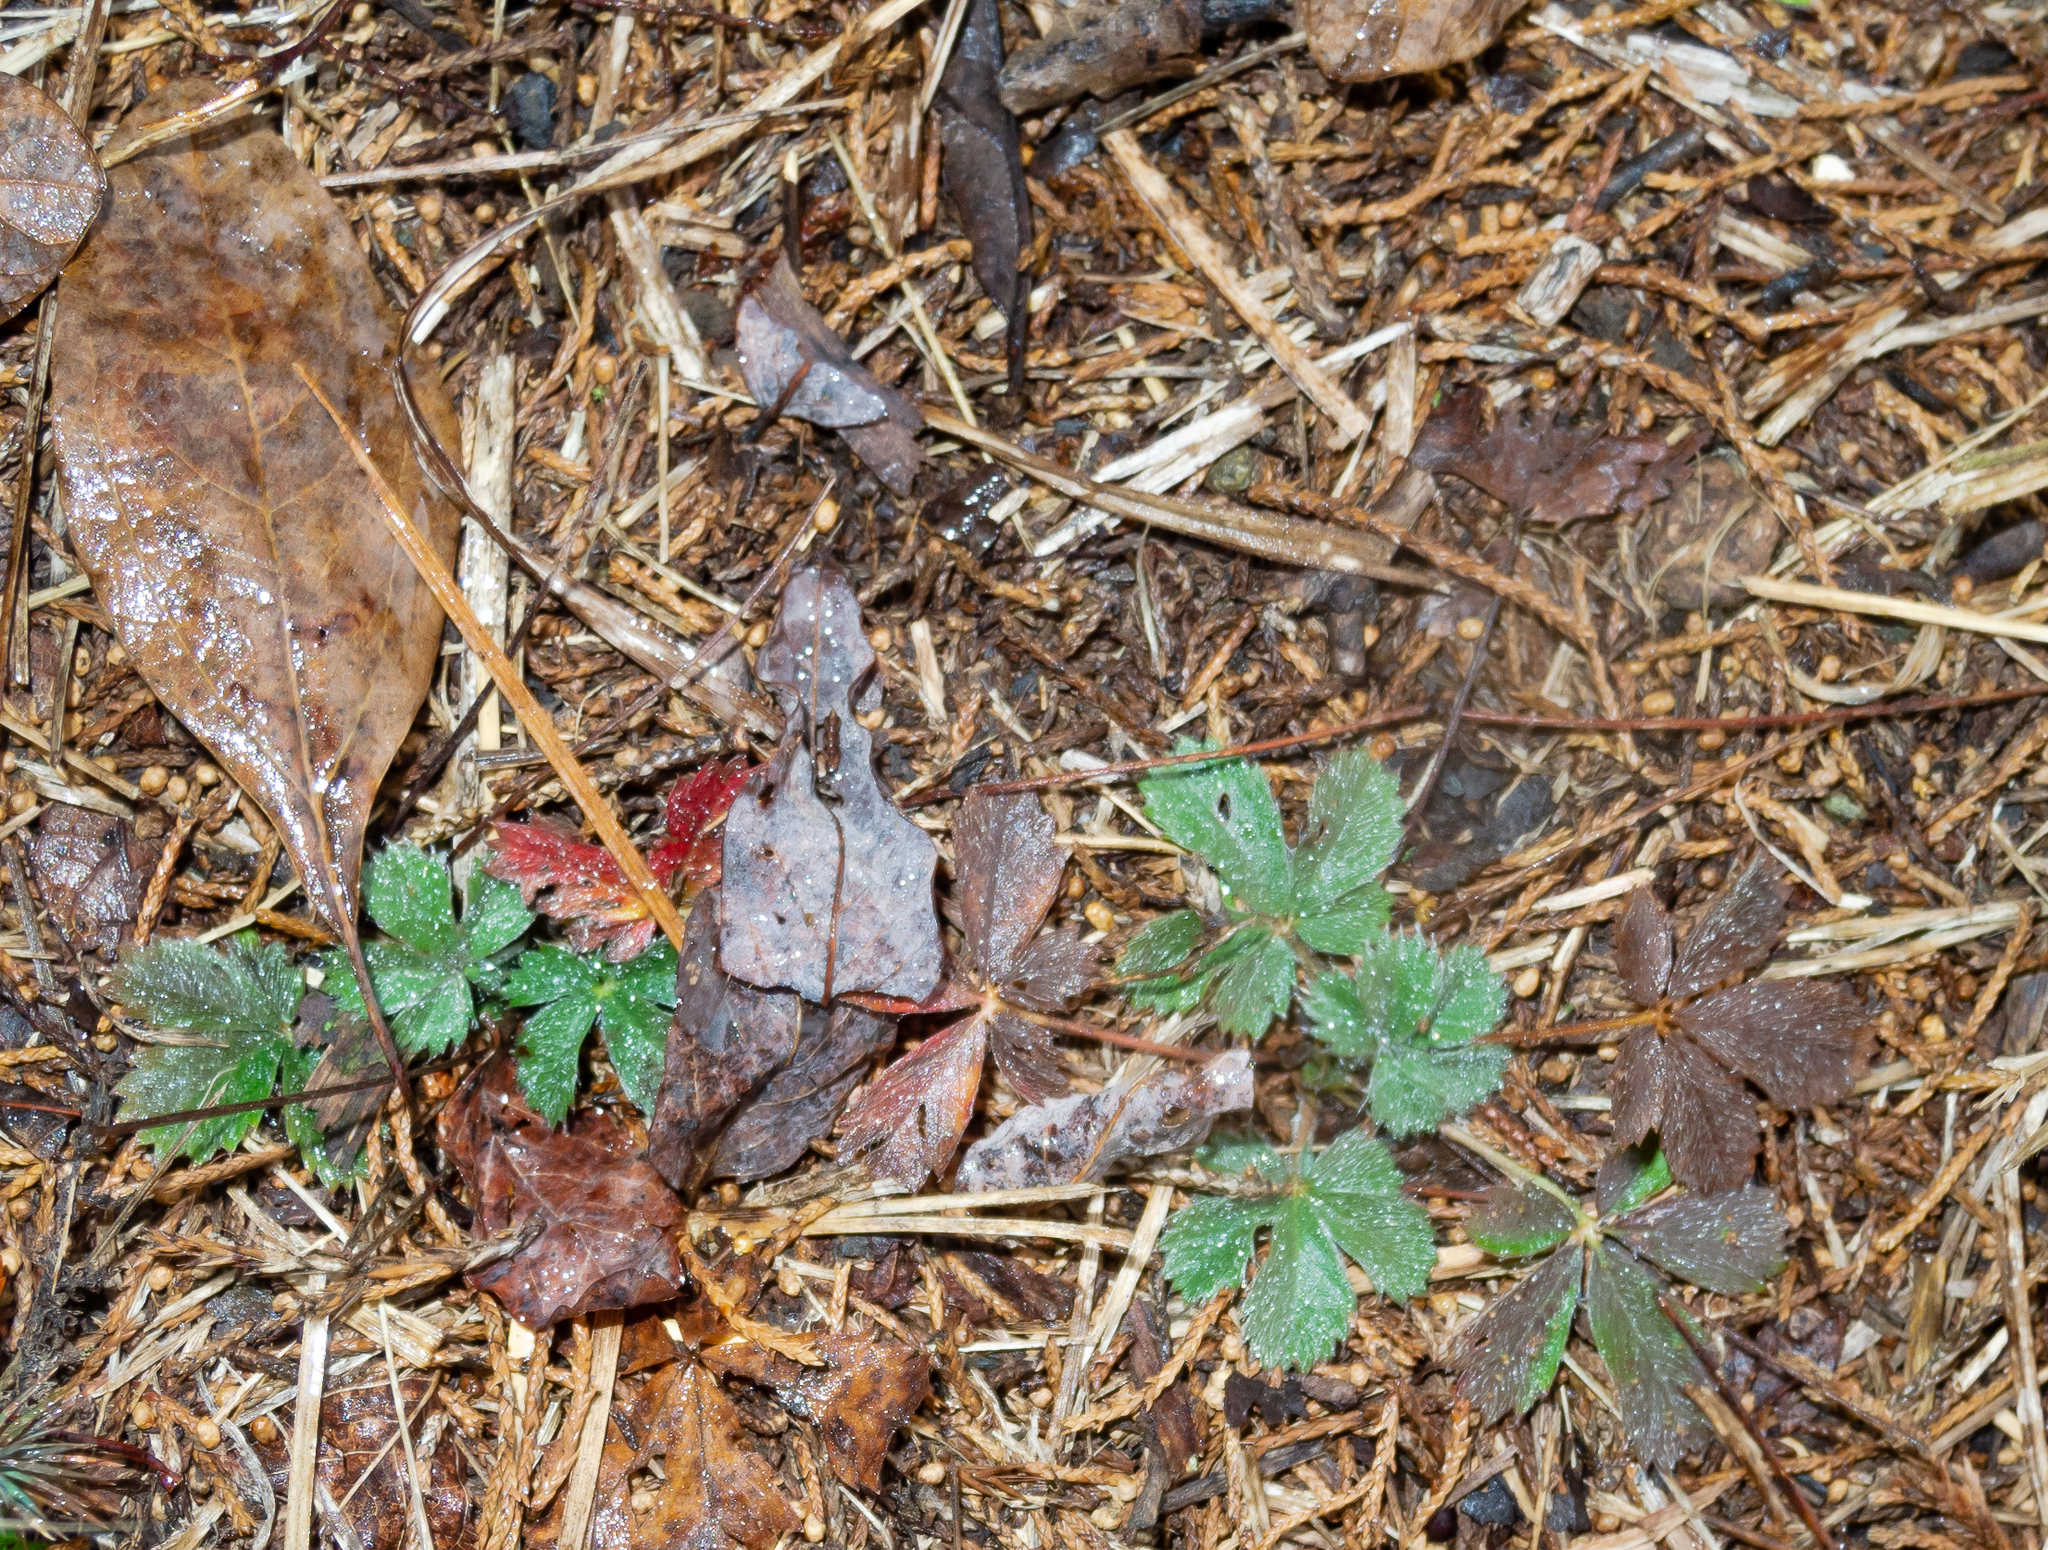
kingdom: Plantae
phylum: Tracheophyta
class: Magnoliopsida
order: Rosales
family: Rosaceae
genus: Potentilla
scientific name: Potentilla canadensis
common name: Canada cinquefoil
